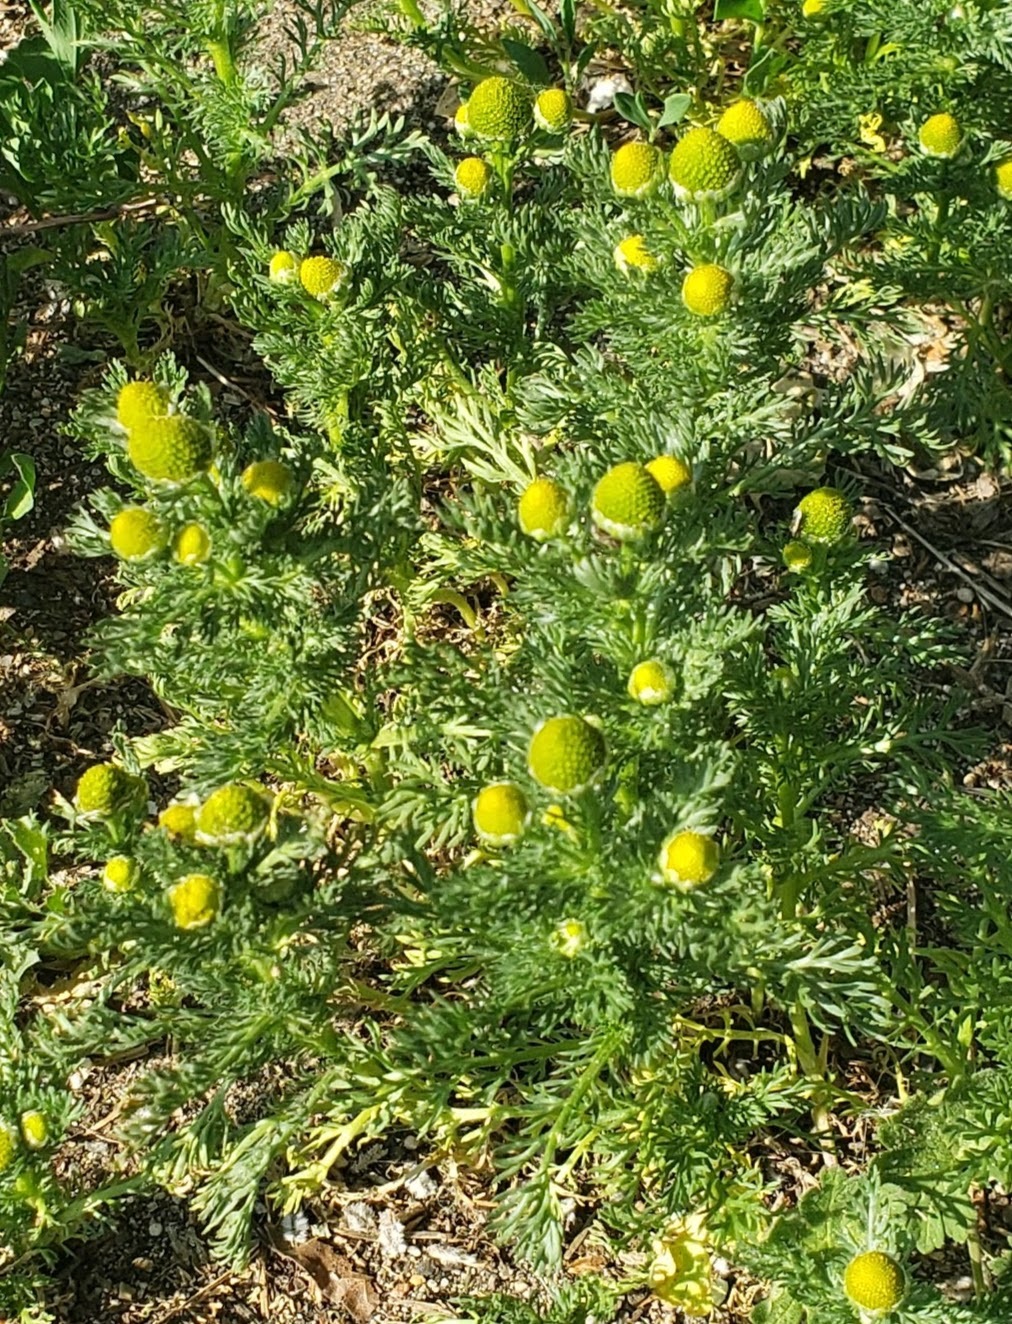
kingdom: Plantae
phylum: Tracheophyta
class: Magnoliopsida
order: Asterales
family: Asteraceae
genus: Matricaria
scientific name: Matricaria discoidea
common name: Disc mayweed
